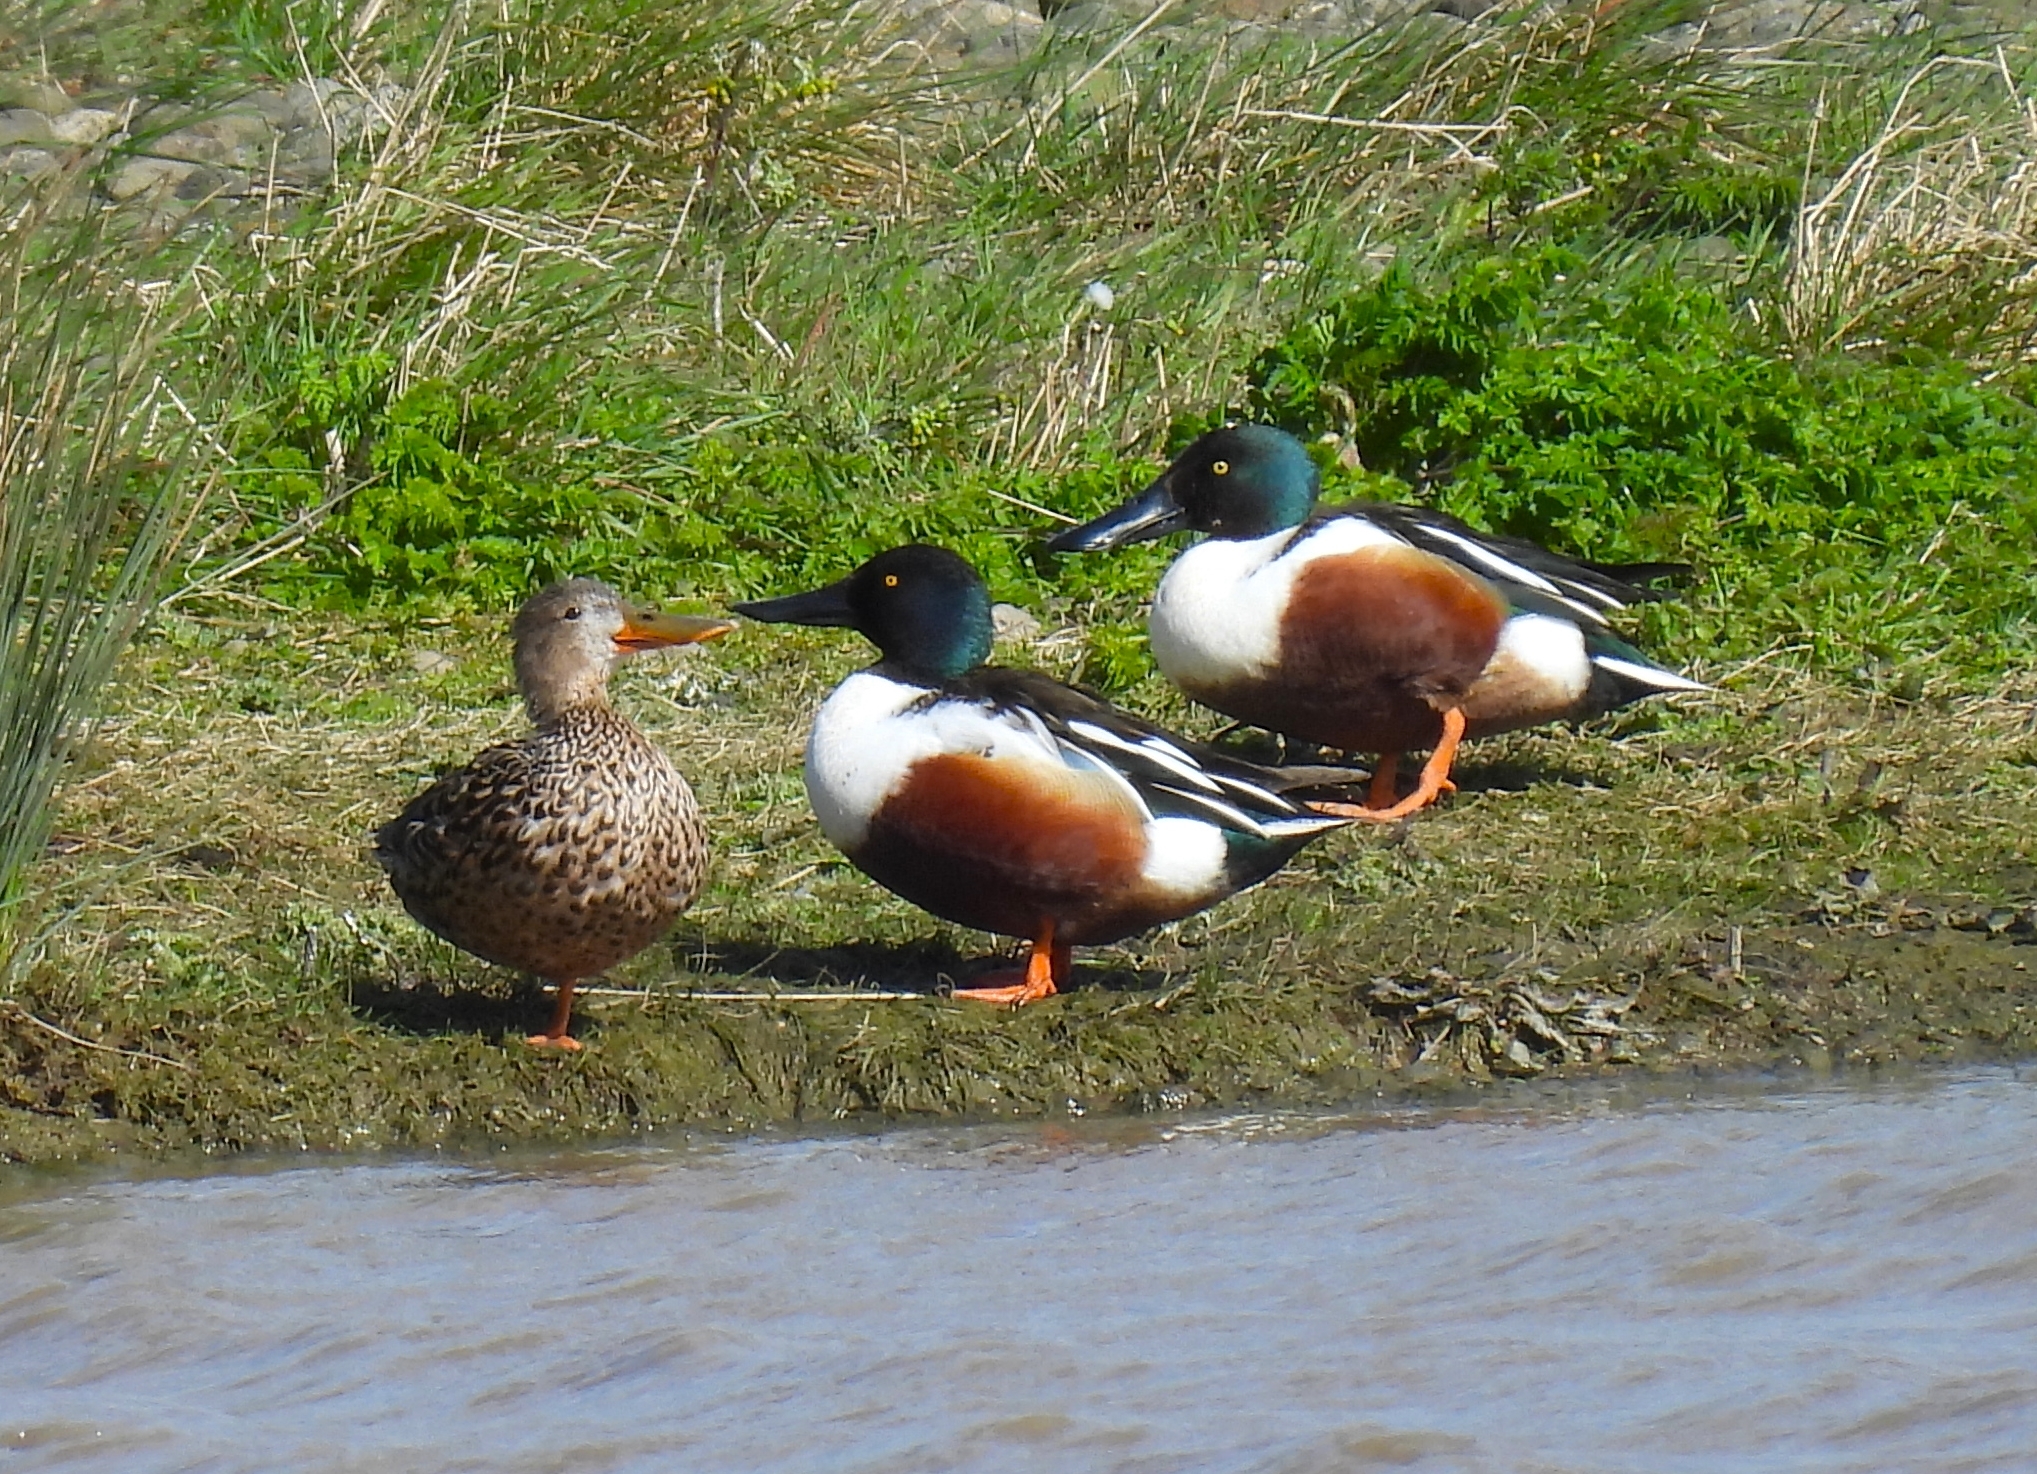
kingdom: Animalia
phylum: Chordata
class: Aves
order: Anseriformes
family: Anatidae
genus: Spatula
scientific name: Spatula clypeata
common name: Northern shoveler
